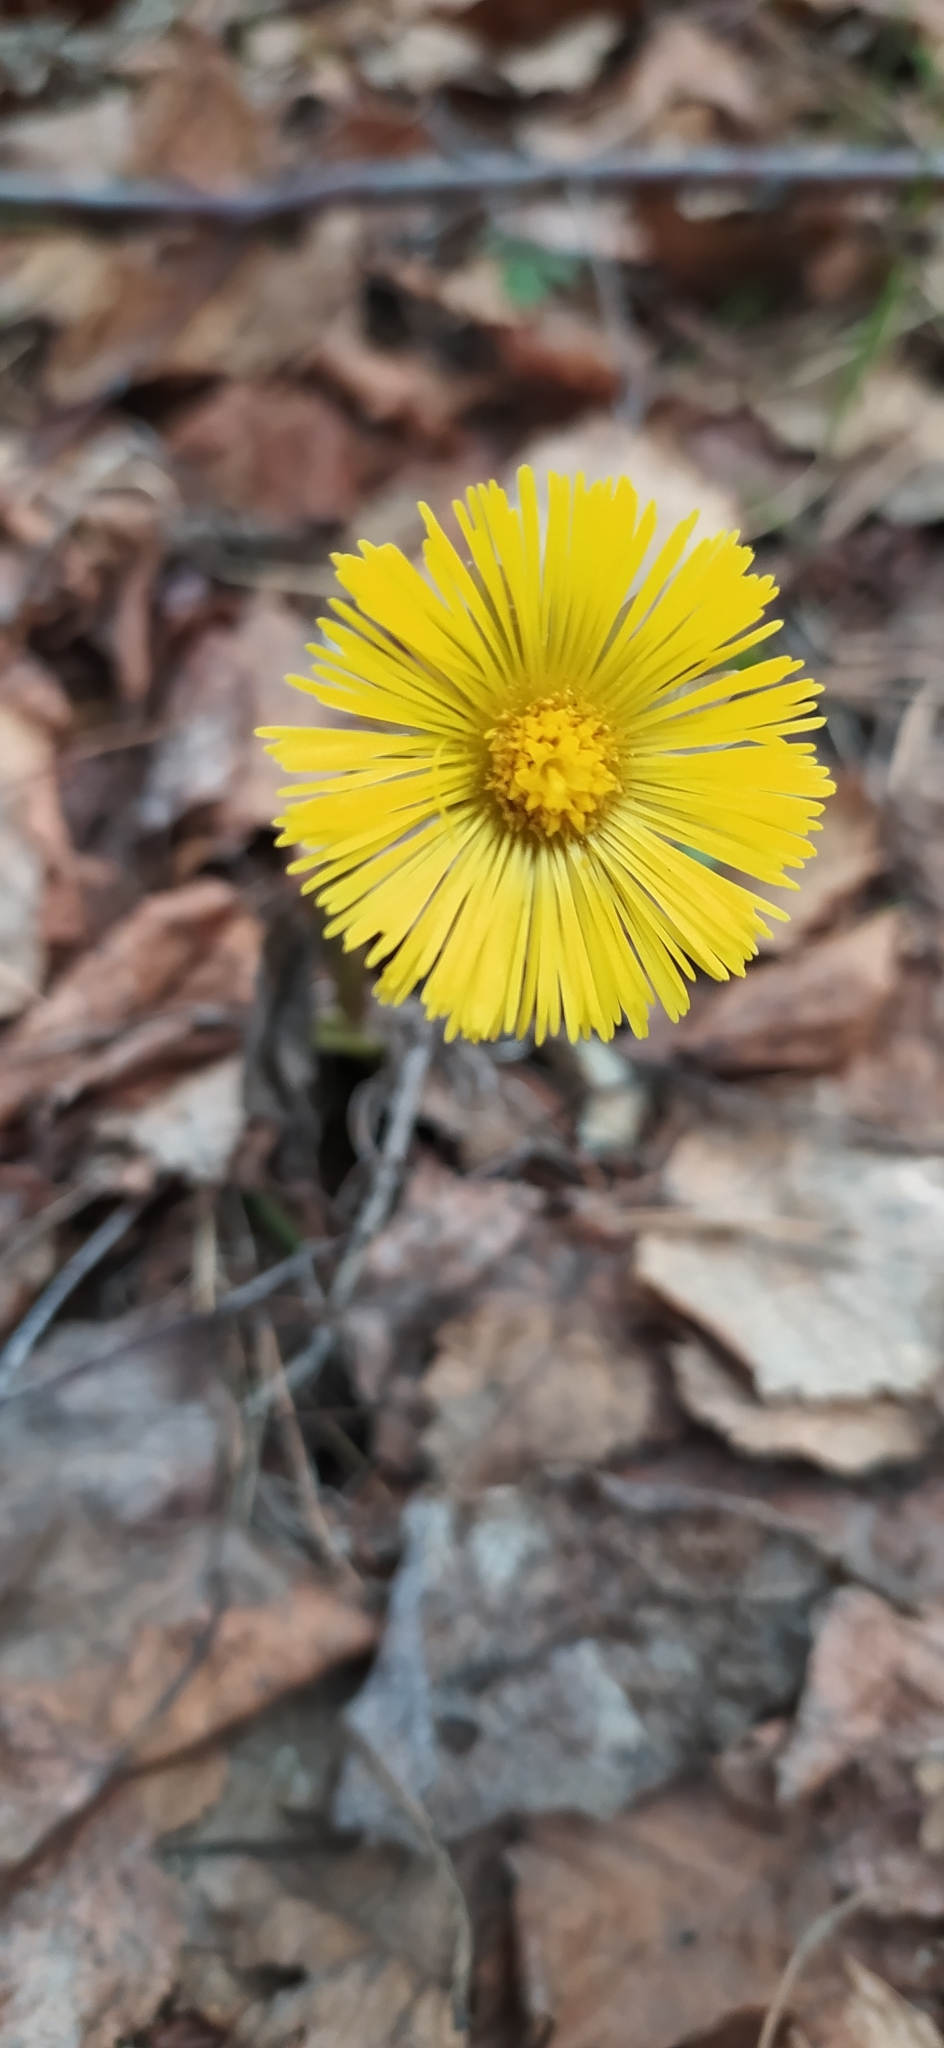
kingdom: Plantae
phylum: Tracheophyta
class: Magnoliopsida
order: Asterales
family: Asteraceae
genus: Tussilago
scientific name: Tussilago farfara
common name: Coltsfoot
